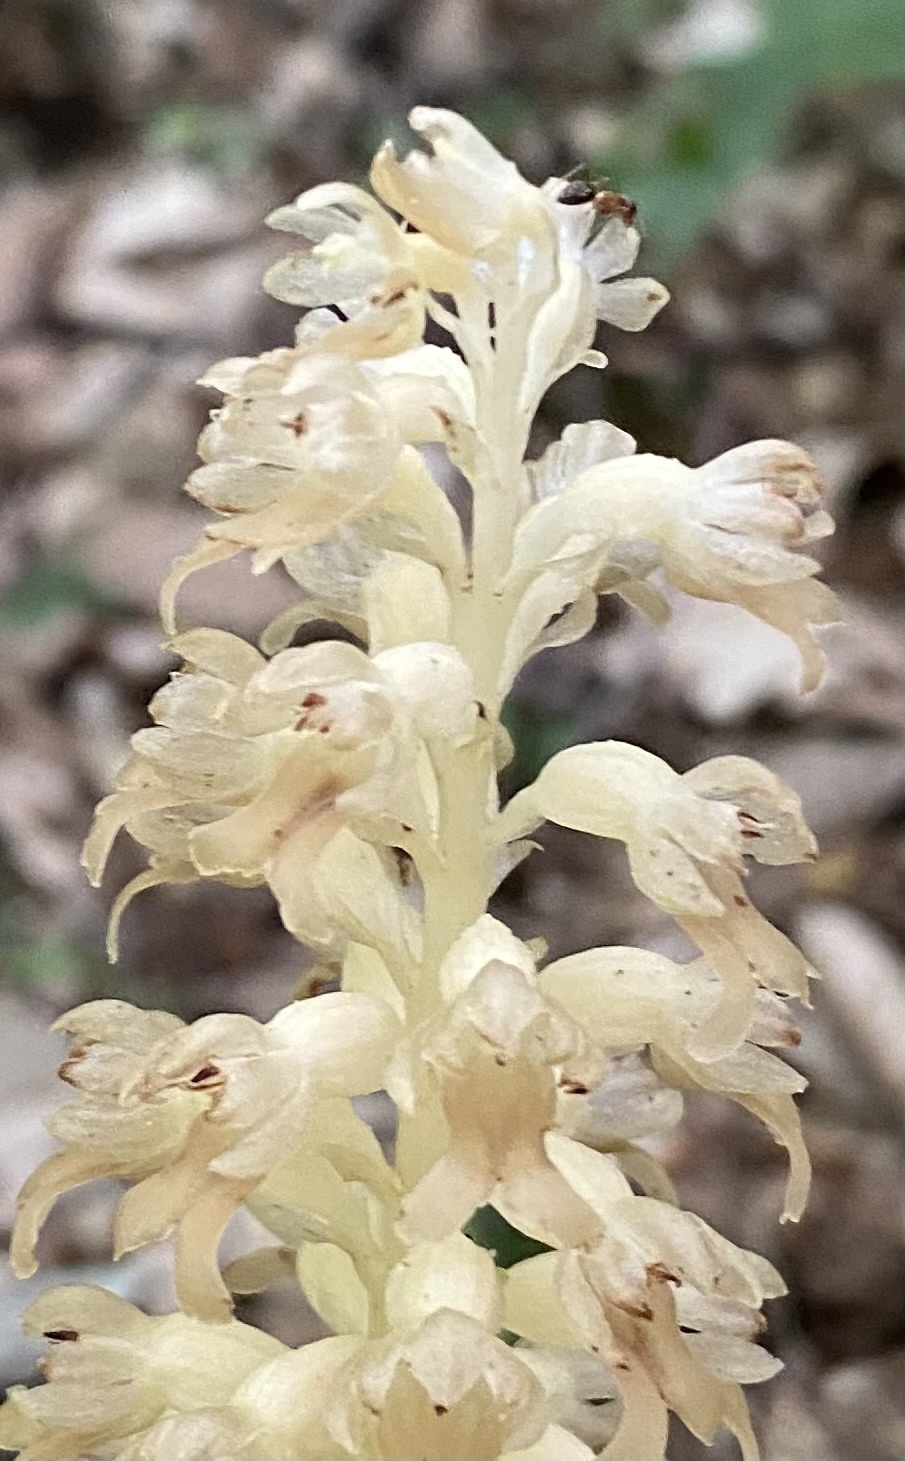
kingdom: Plantae
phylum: Tracheophyta
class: Liliopsida
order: Asparagales
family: Orchidaceae
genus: Neottia
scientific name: Neottia nidus-avis
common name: Bird's-nest orchid
